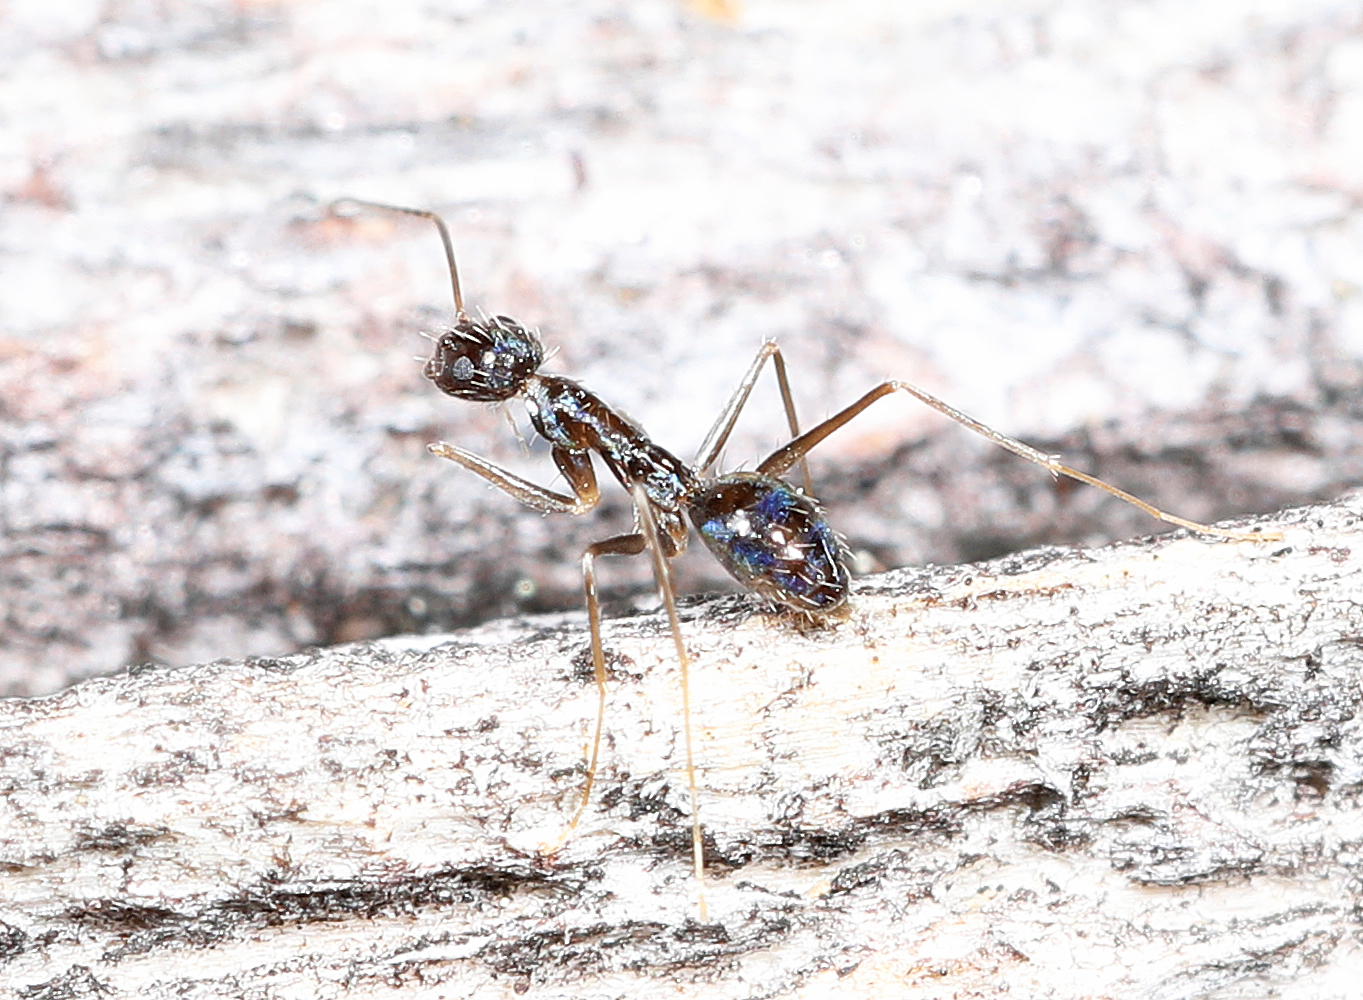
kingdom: Animalia
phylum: Arthropoda
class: Insecta
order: Hymenoptera
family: Formicidae
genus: Paratrechina
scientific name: Paratrechina longicornis
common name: Longhorned crazy ant
